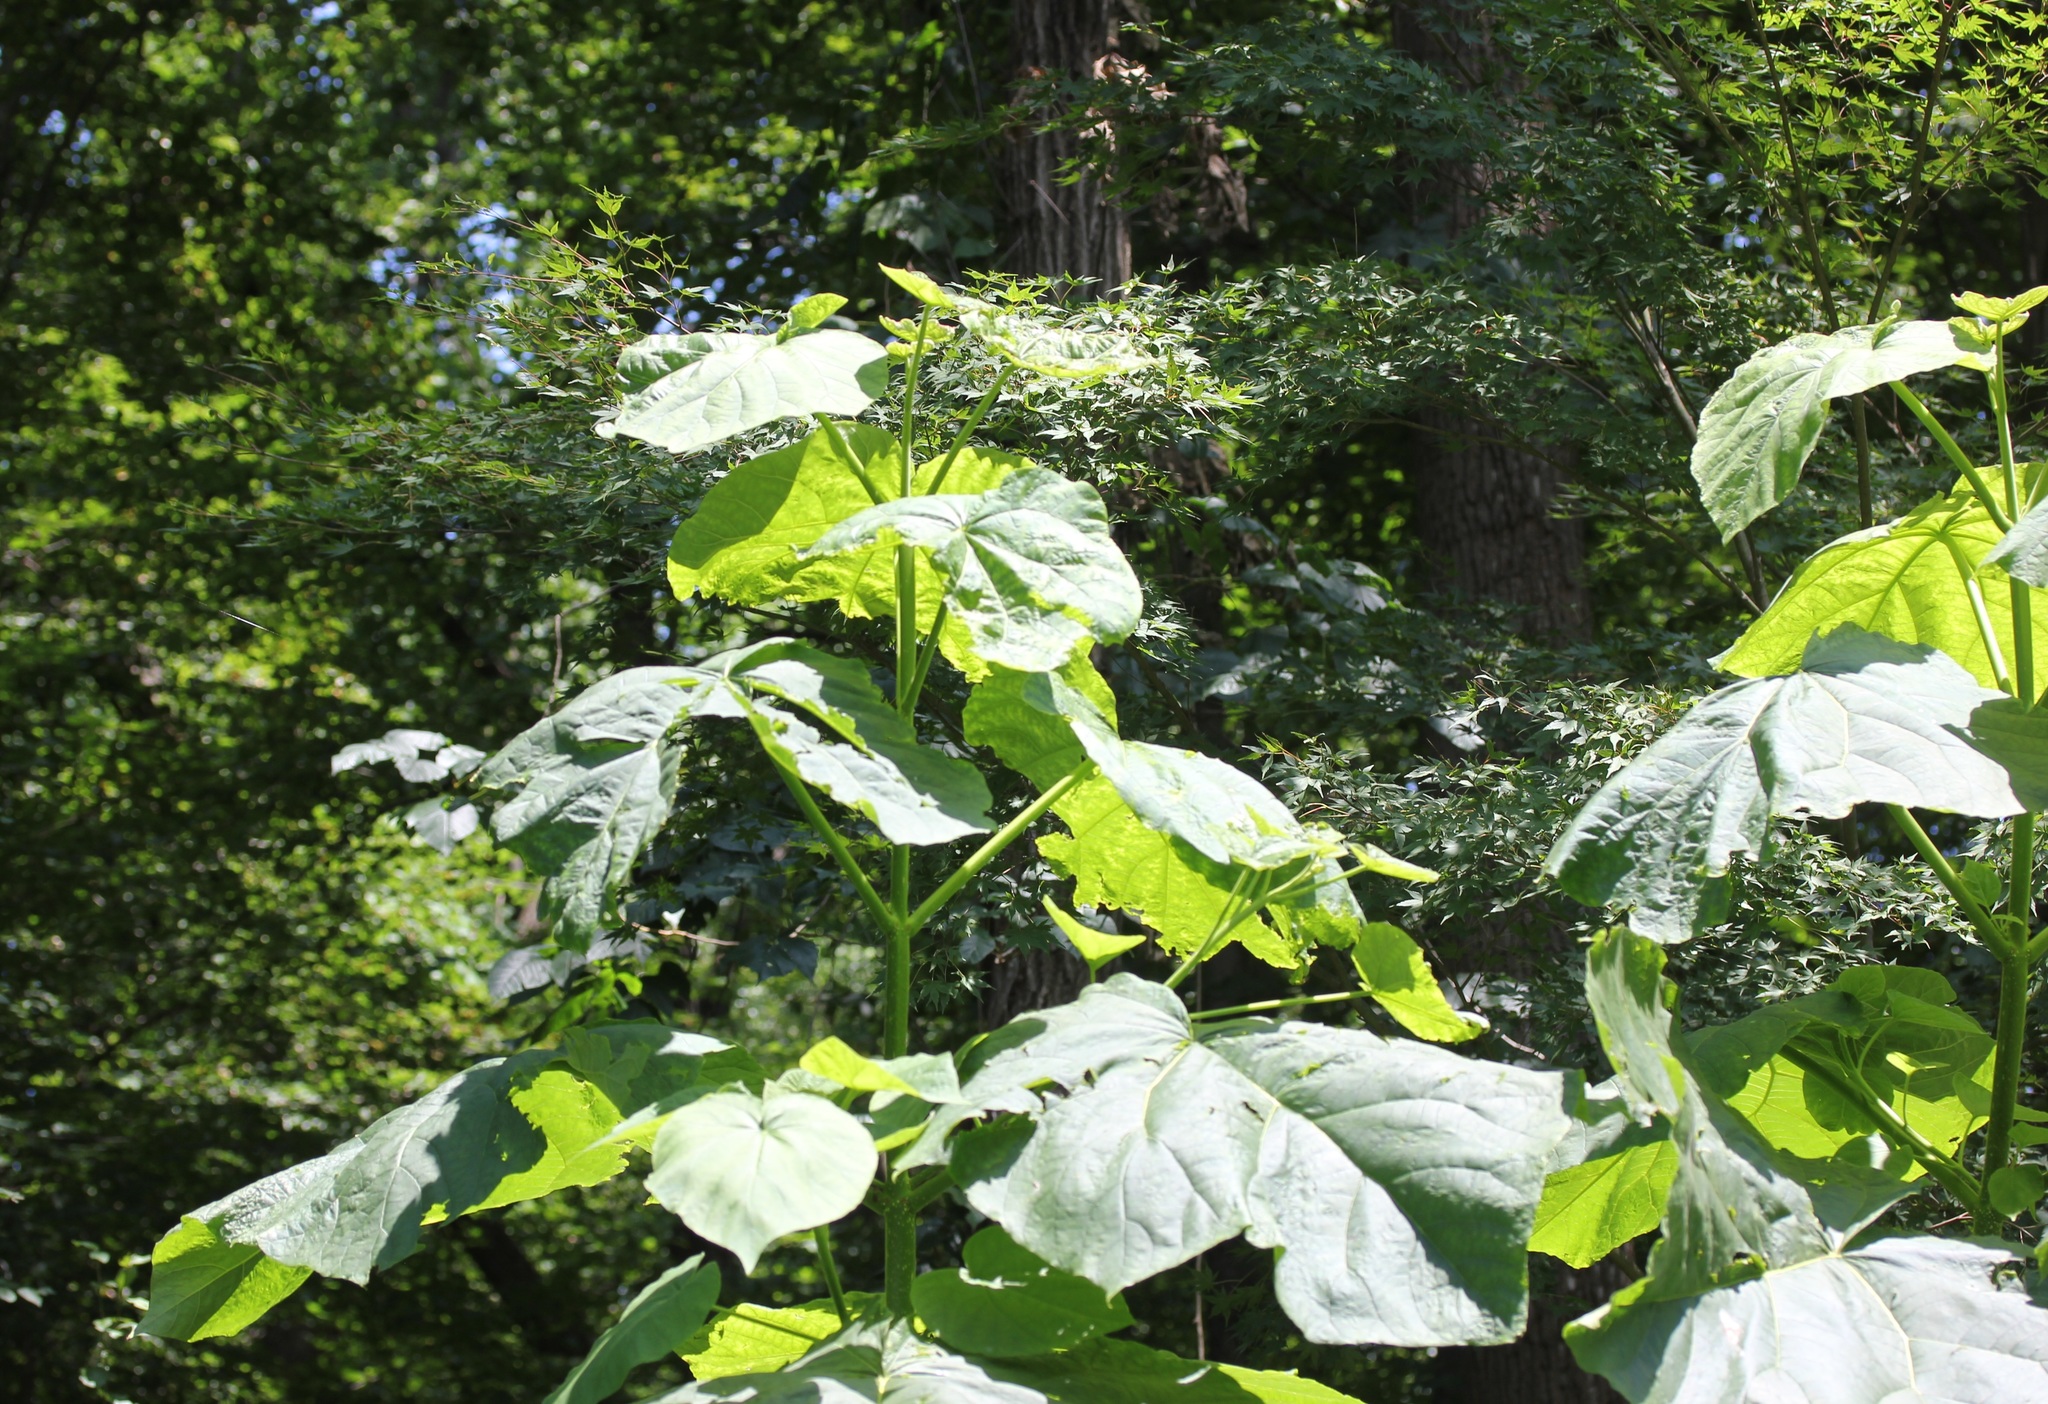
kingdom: Plantae
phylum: Tracheophyta
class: Magnoliopsida
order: Lamiales
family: Paulowniaceae
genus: Paulownia
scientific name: Paulownia tomentosa
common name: Foxglove-tree
